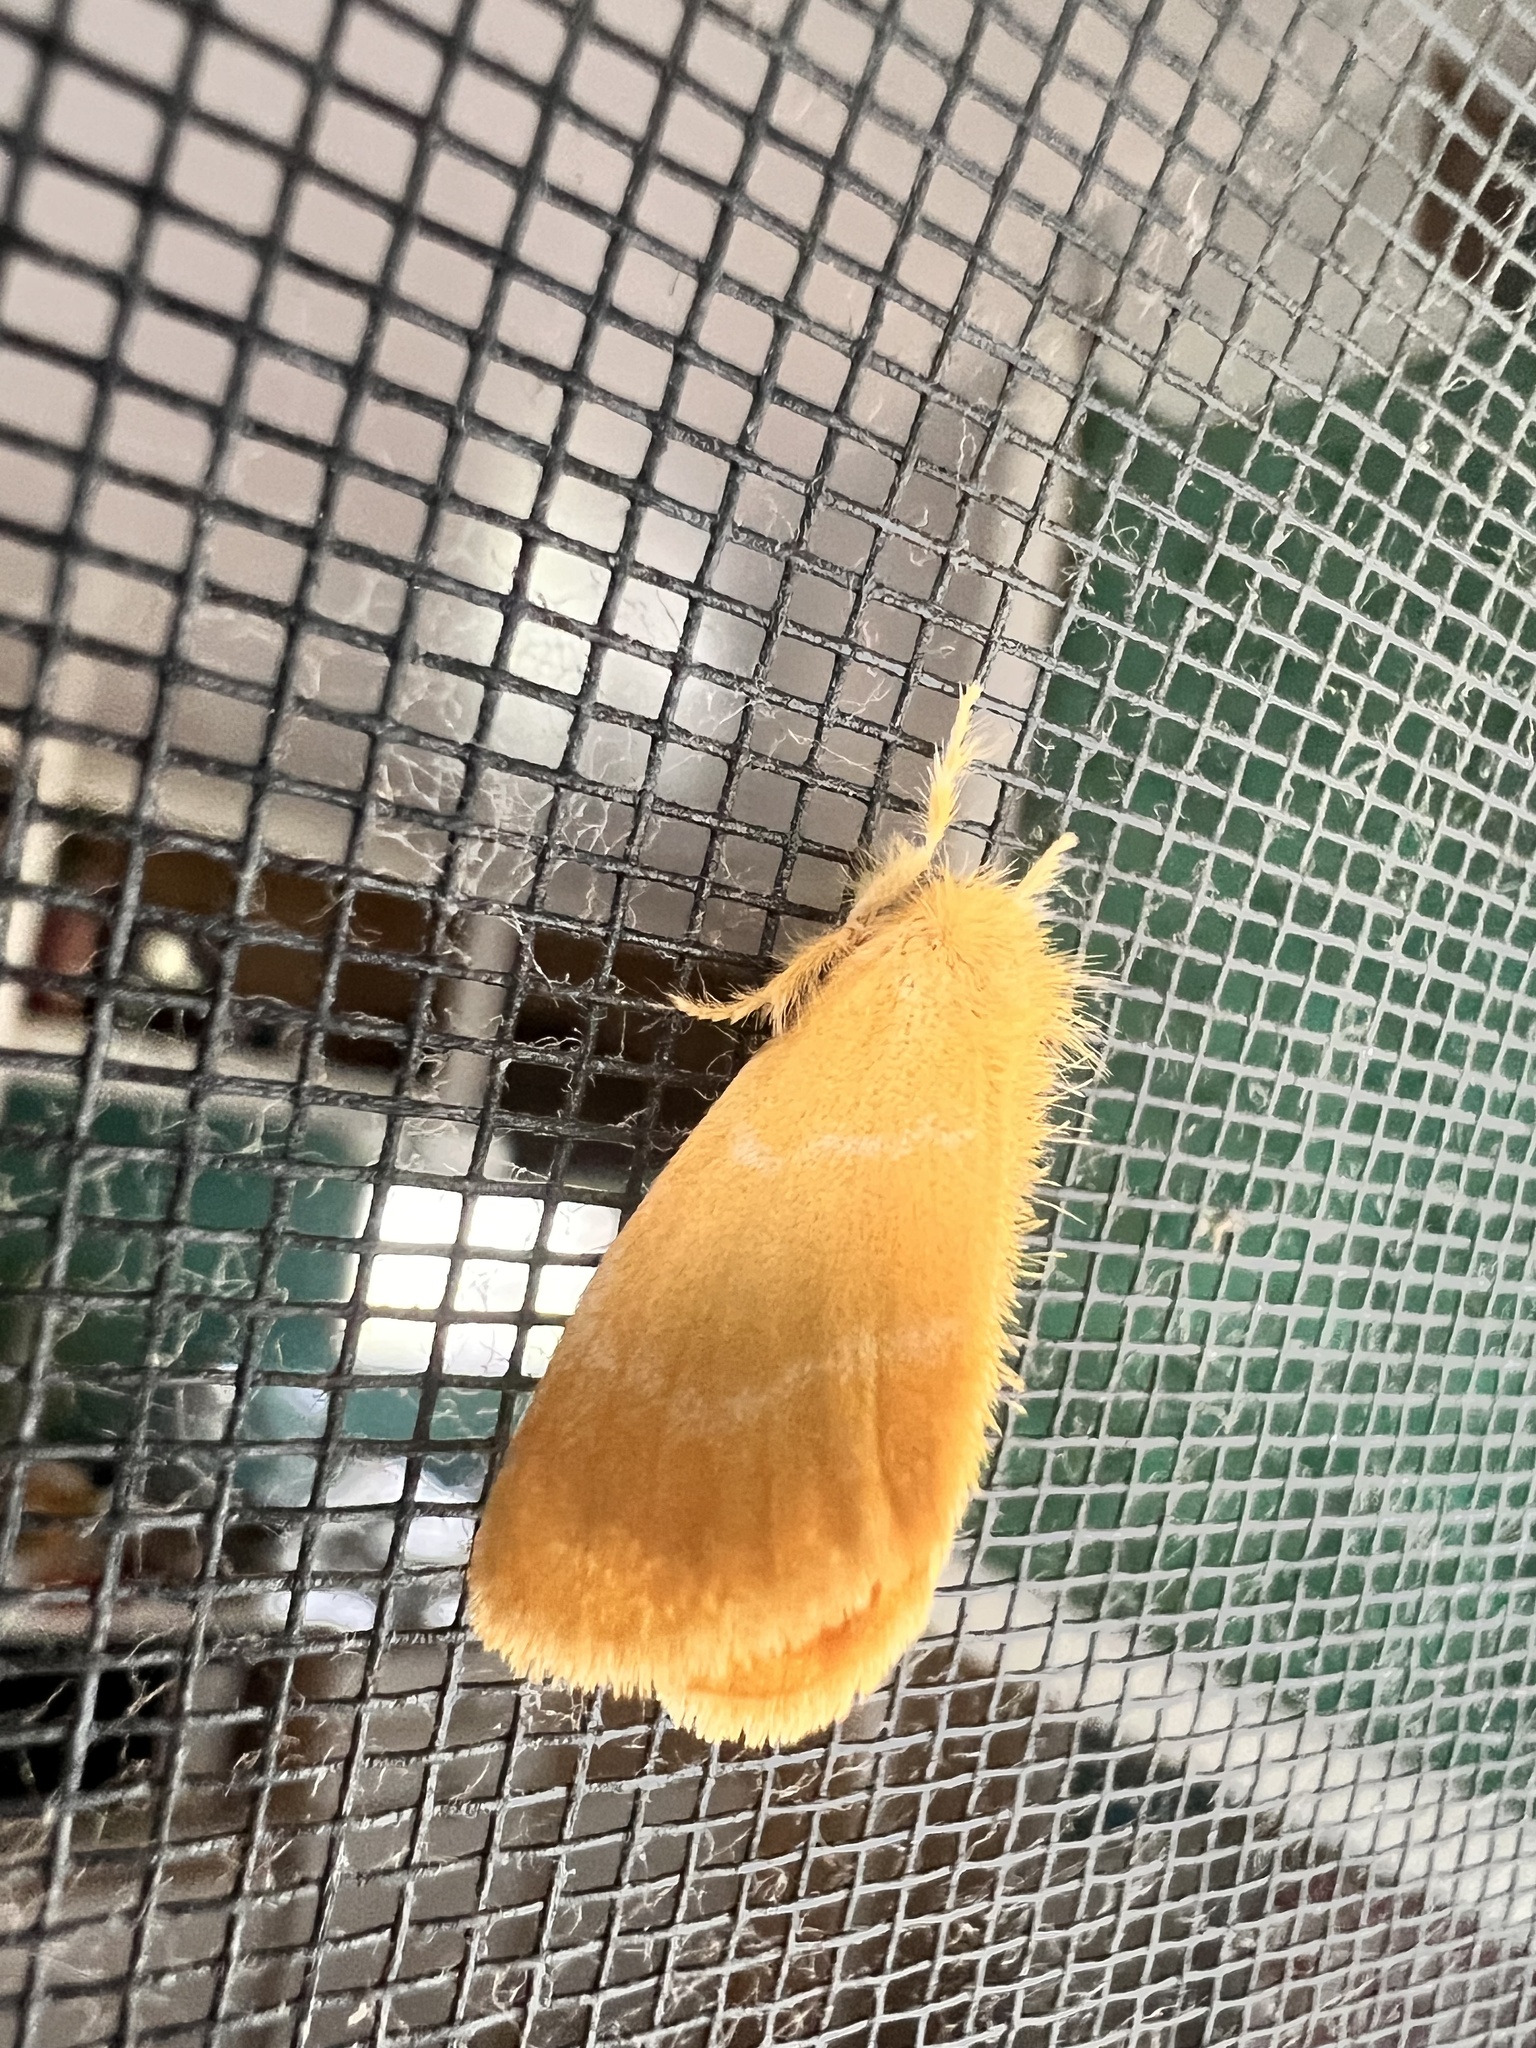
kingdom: Animalia
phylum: Arthropoda
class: Insecta
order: Lepidoptera
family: Erebidae
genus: Euproctis
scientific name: Euproctis lutea
